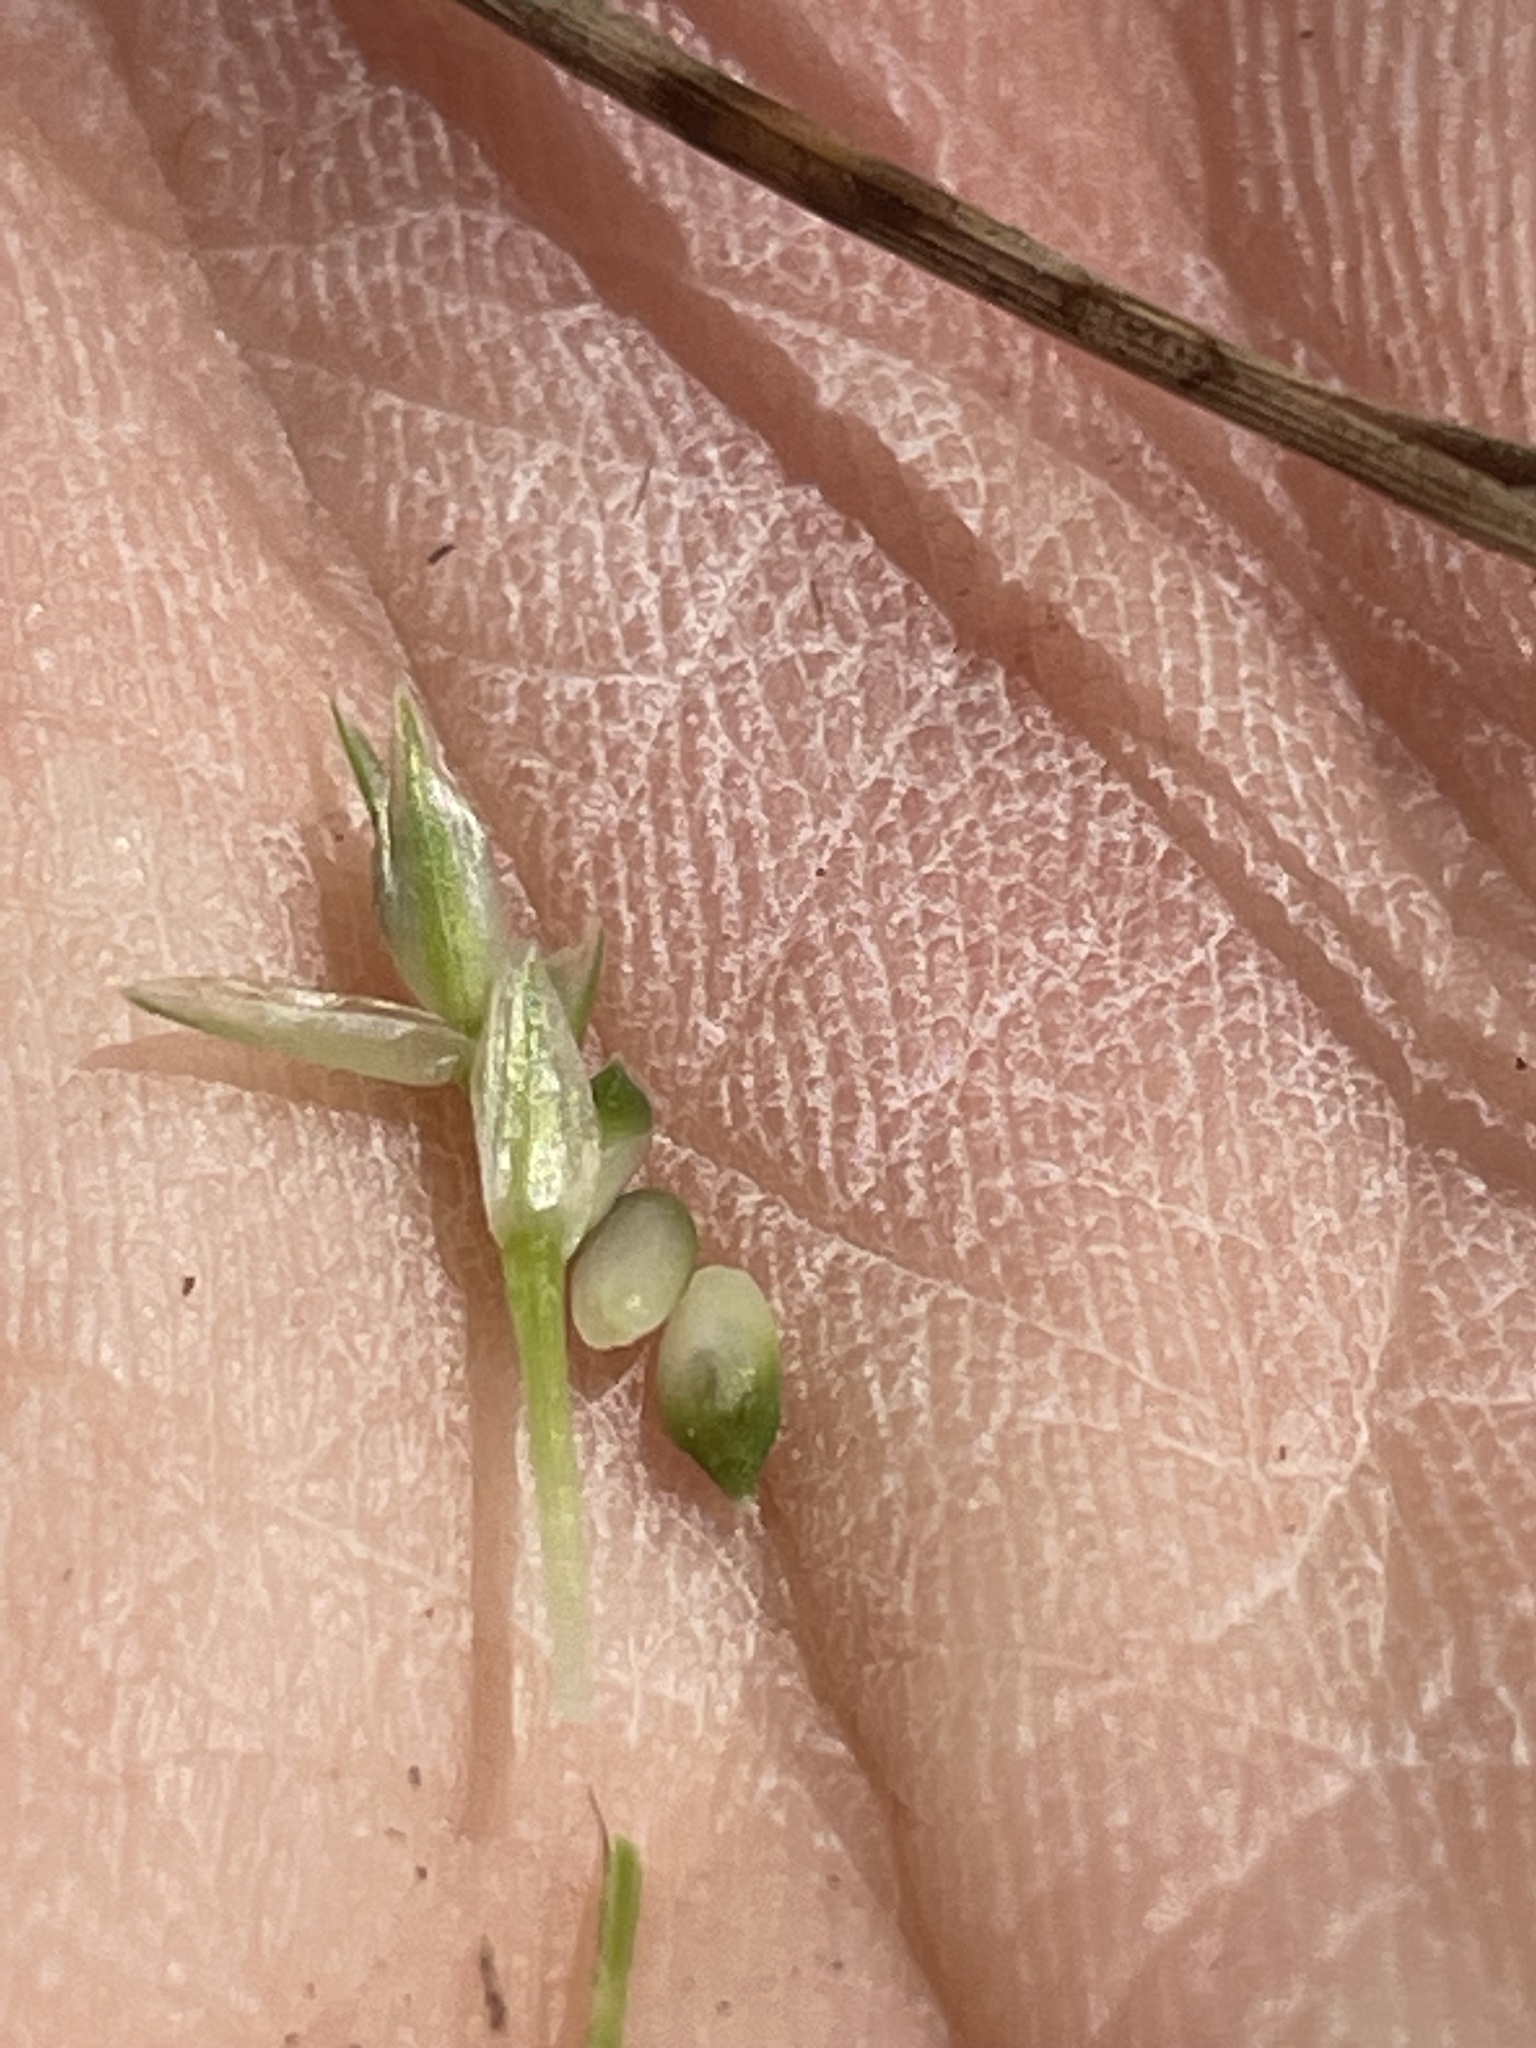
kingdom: Plantae
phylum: Tracheophyta
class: Liliopsida
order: Poales
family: Cyperaceae
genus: Carex
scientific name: Carex umbellata
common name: Early oak sedge
